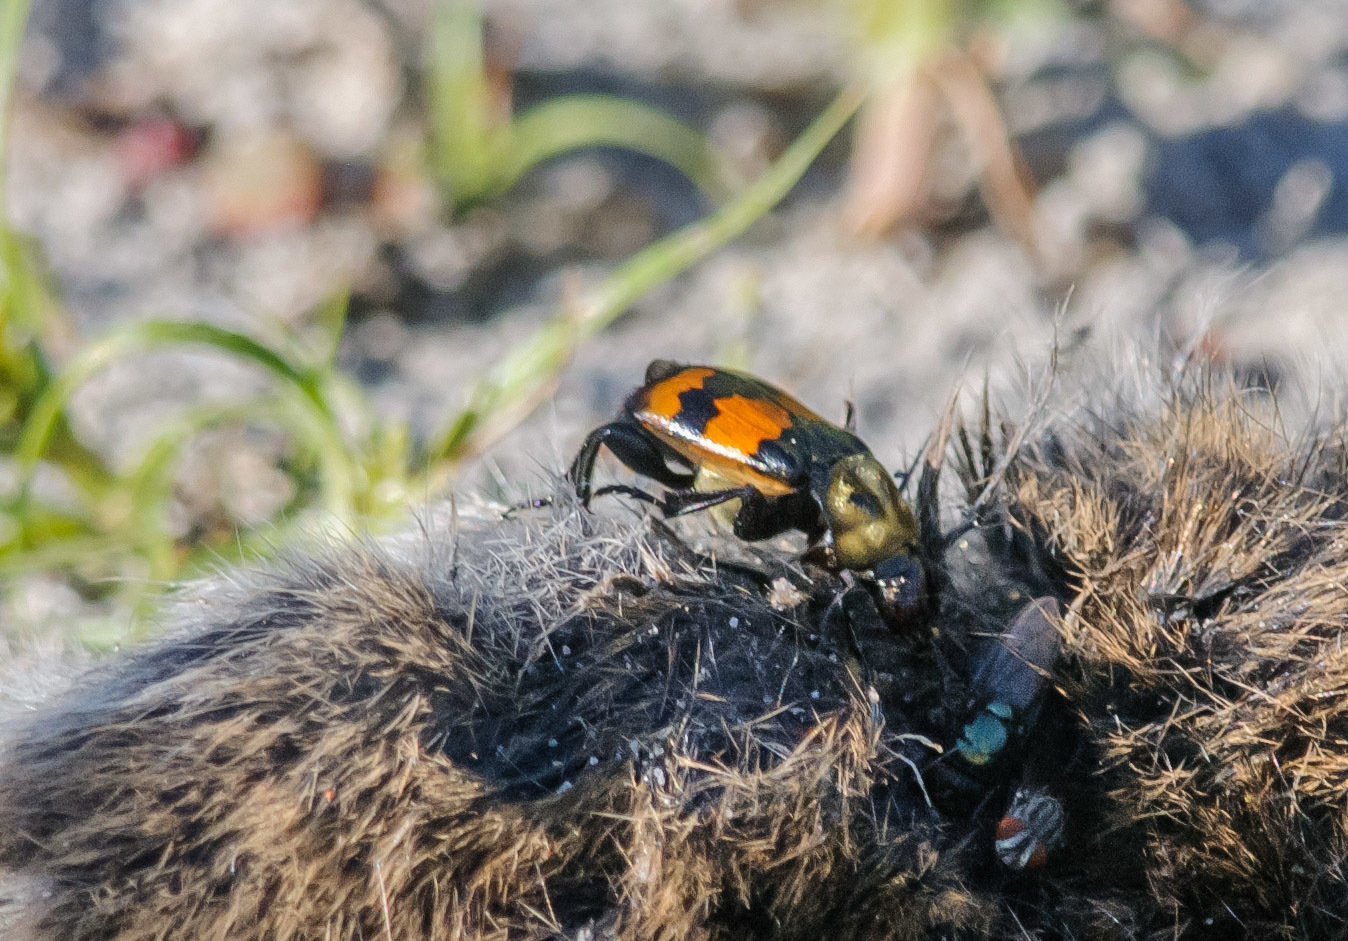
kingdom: Animalia
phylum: Arthropoda
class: Insecta
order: Coleoptera
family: Staphylinidae
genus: Nicrophorus
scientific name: Nicrophorus tomentosus
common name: Tomentose burying beetle
